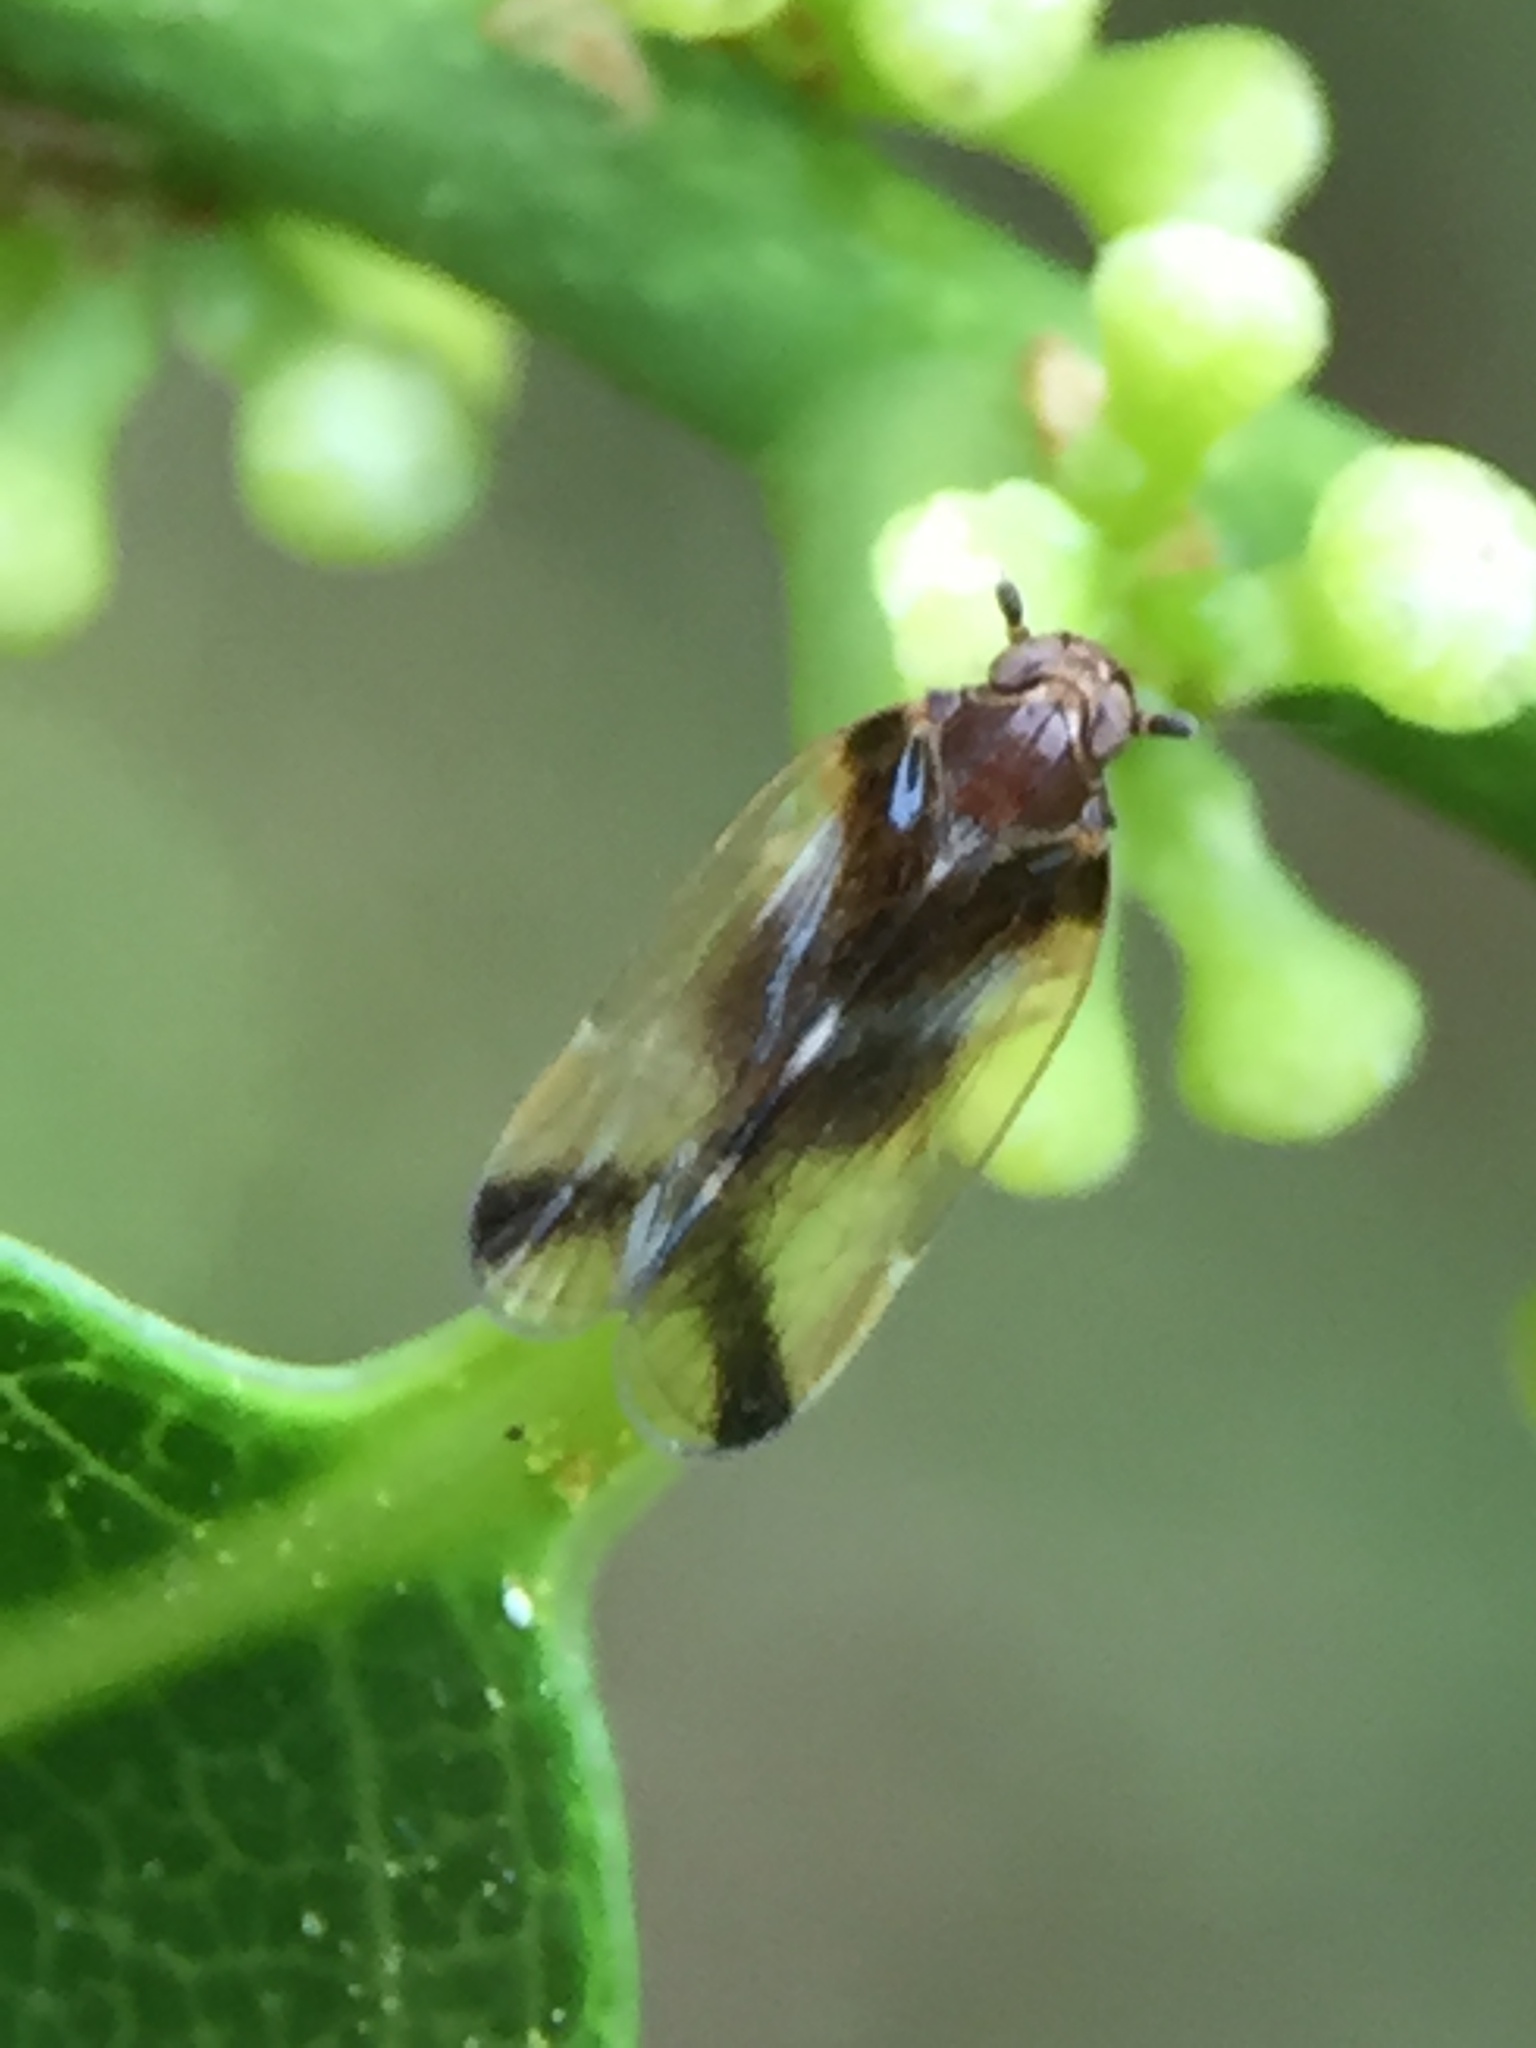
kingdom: Animalia
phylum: Arthropoda
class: Insecta
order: Hemiptera
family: Cixiidae
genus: Tiriteana
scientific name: Tiriteana clarkei
